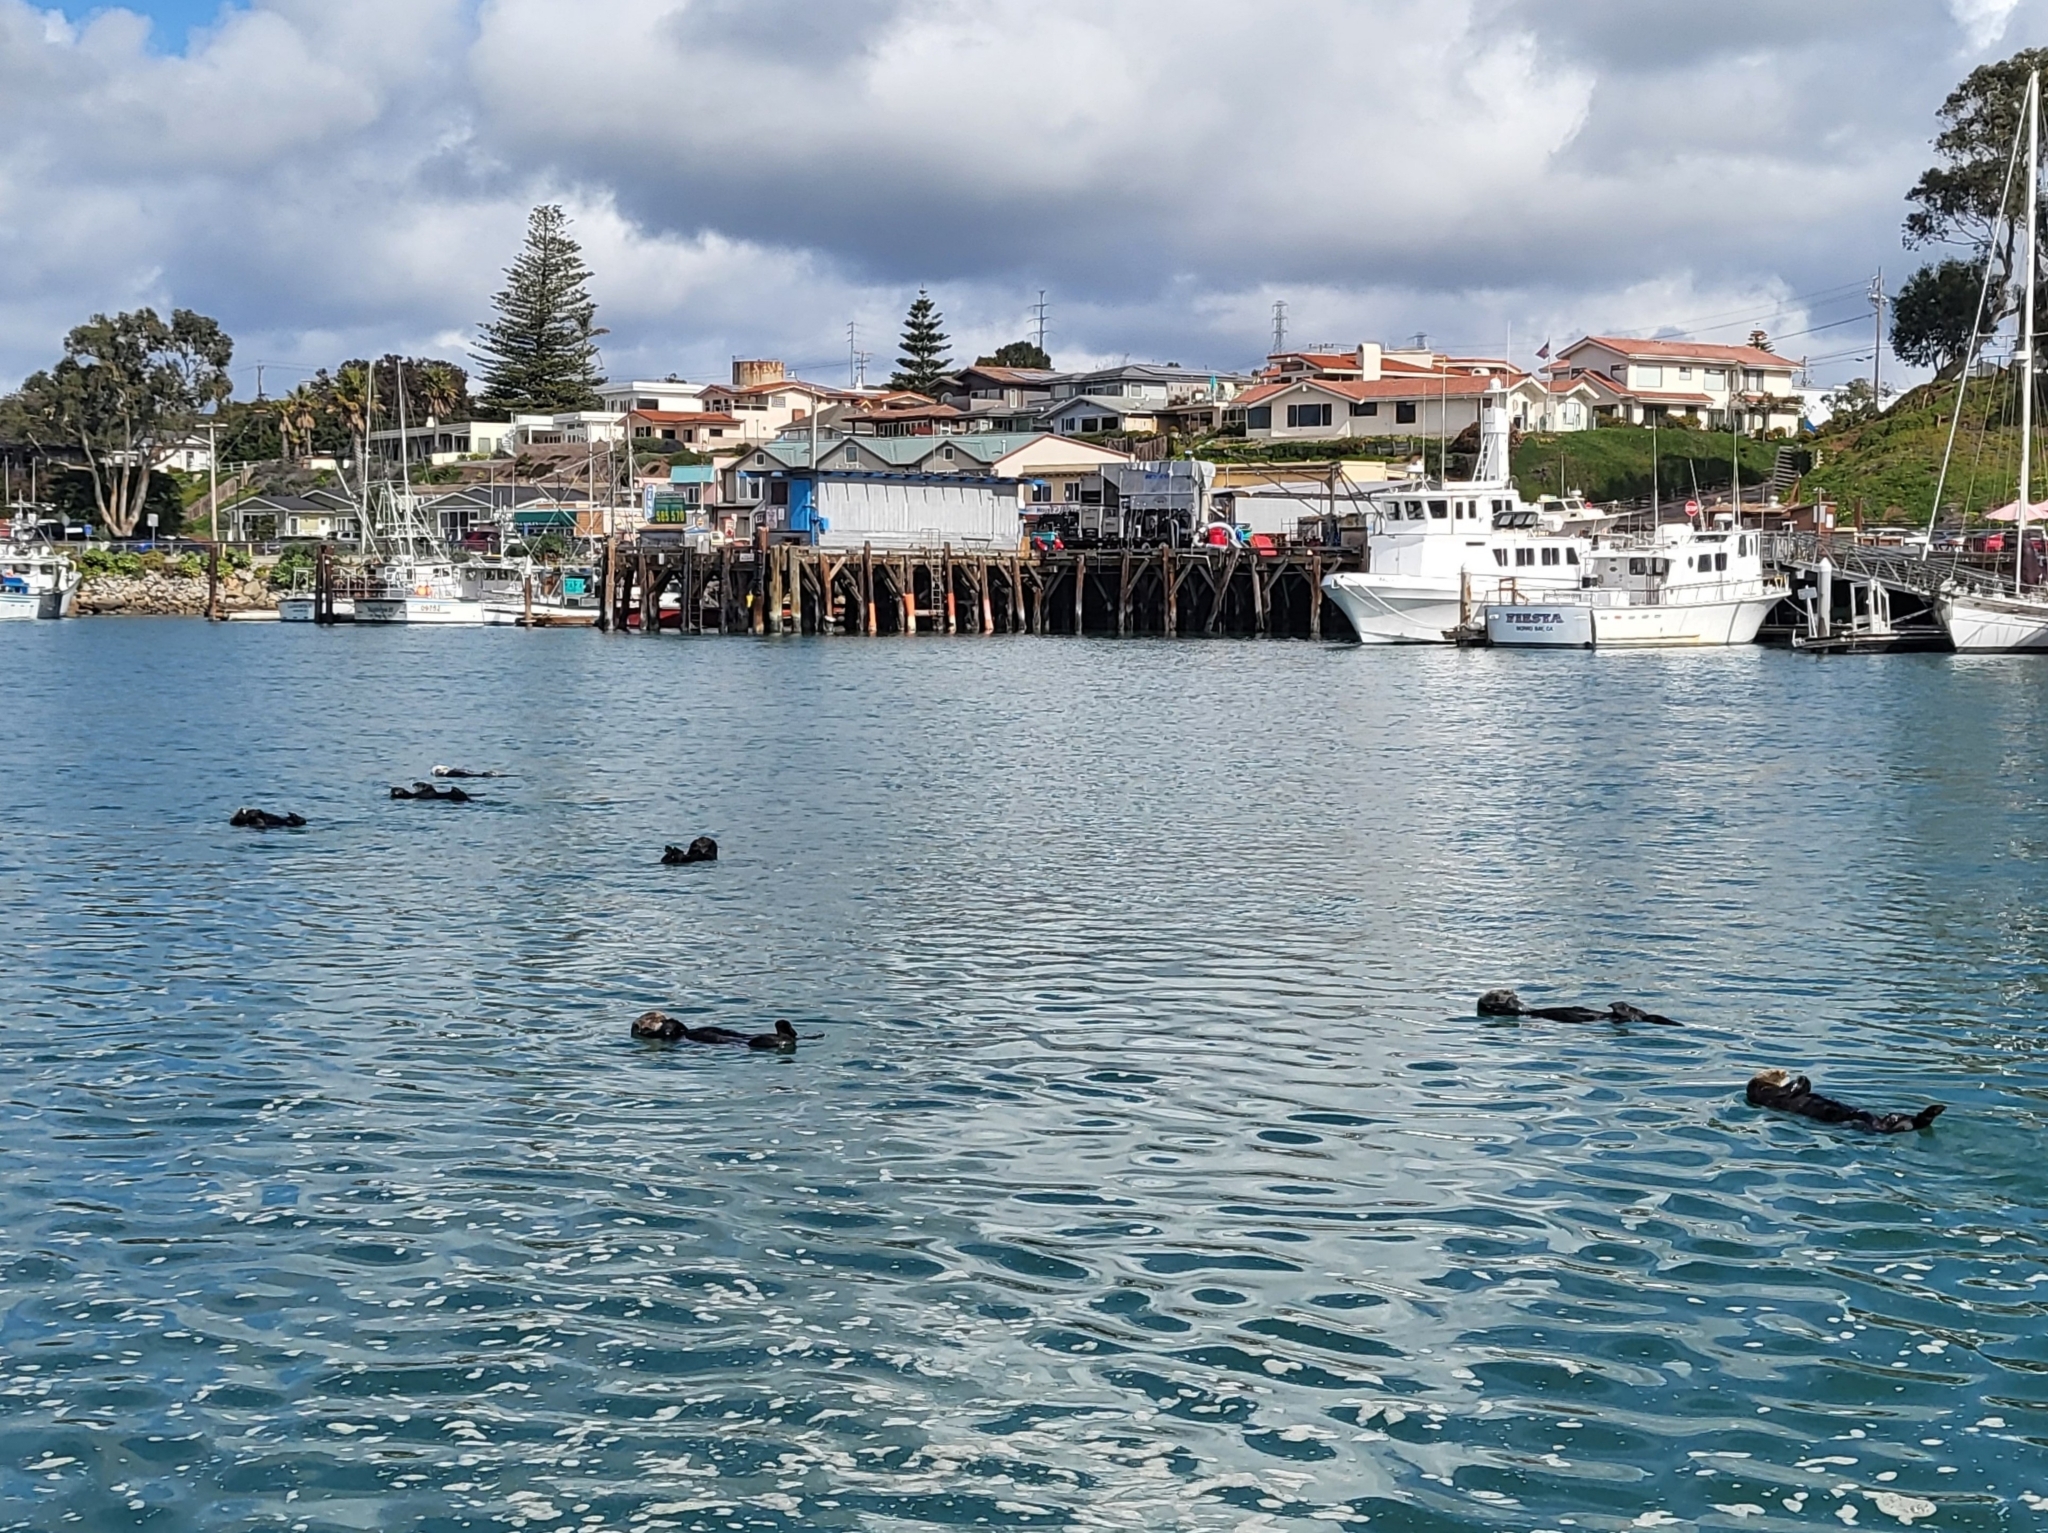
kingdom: Animalia
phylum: Chordata
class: Mammalia
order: Carnivora
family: Mustelidae
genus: Enhydra
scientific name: Enhydra lutris
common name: Sea otter
